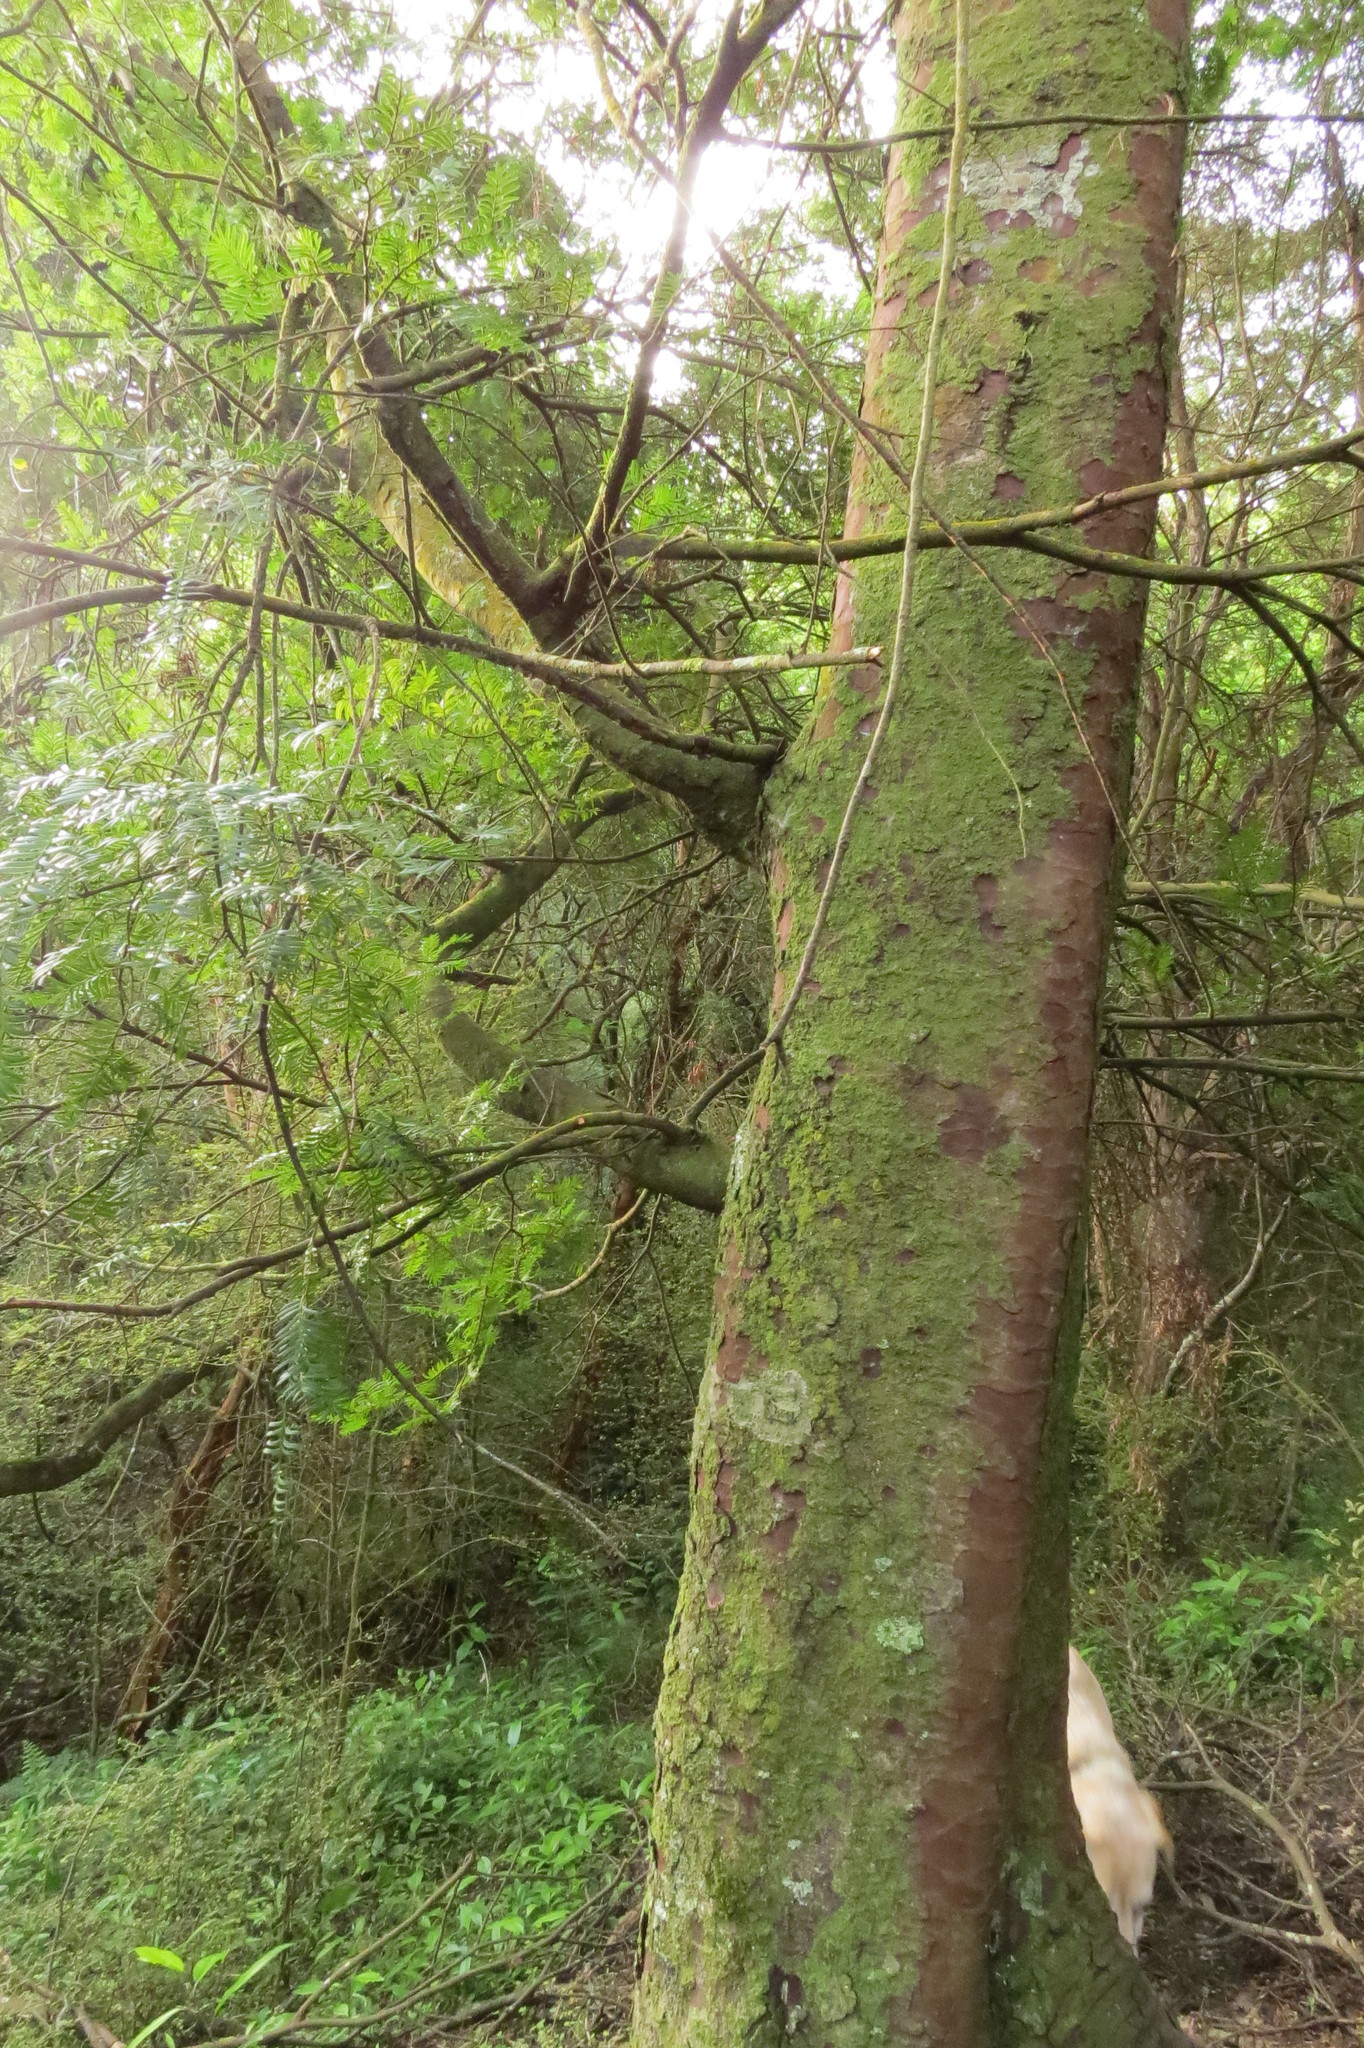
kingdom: Plantae
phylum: Tracheophyta
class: Pinopsida
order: Pinales
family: Podocarpaceae
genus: Prumnopitys
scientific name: Prumnopitys ferruginea
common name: Brown pine
